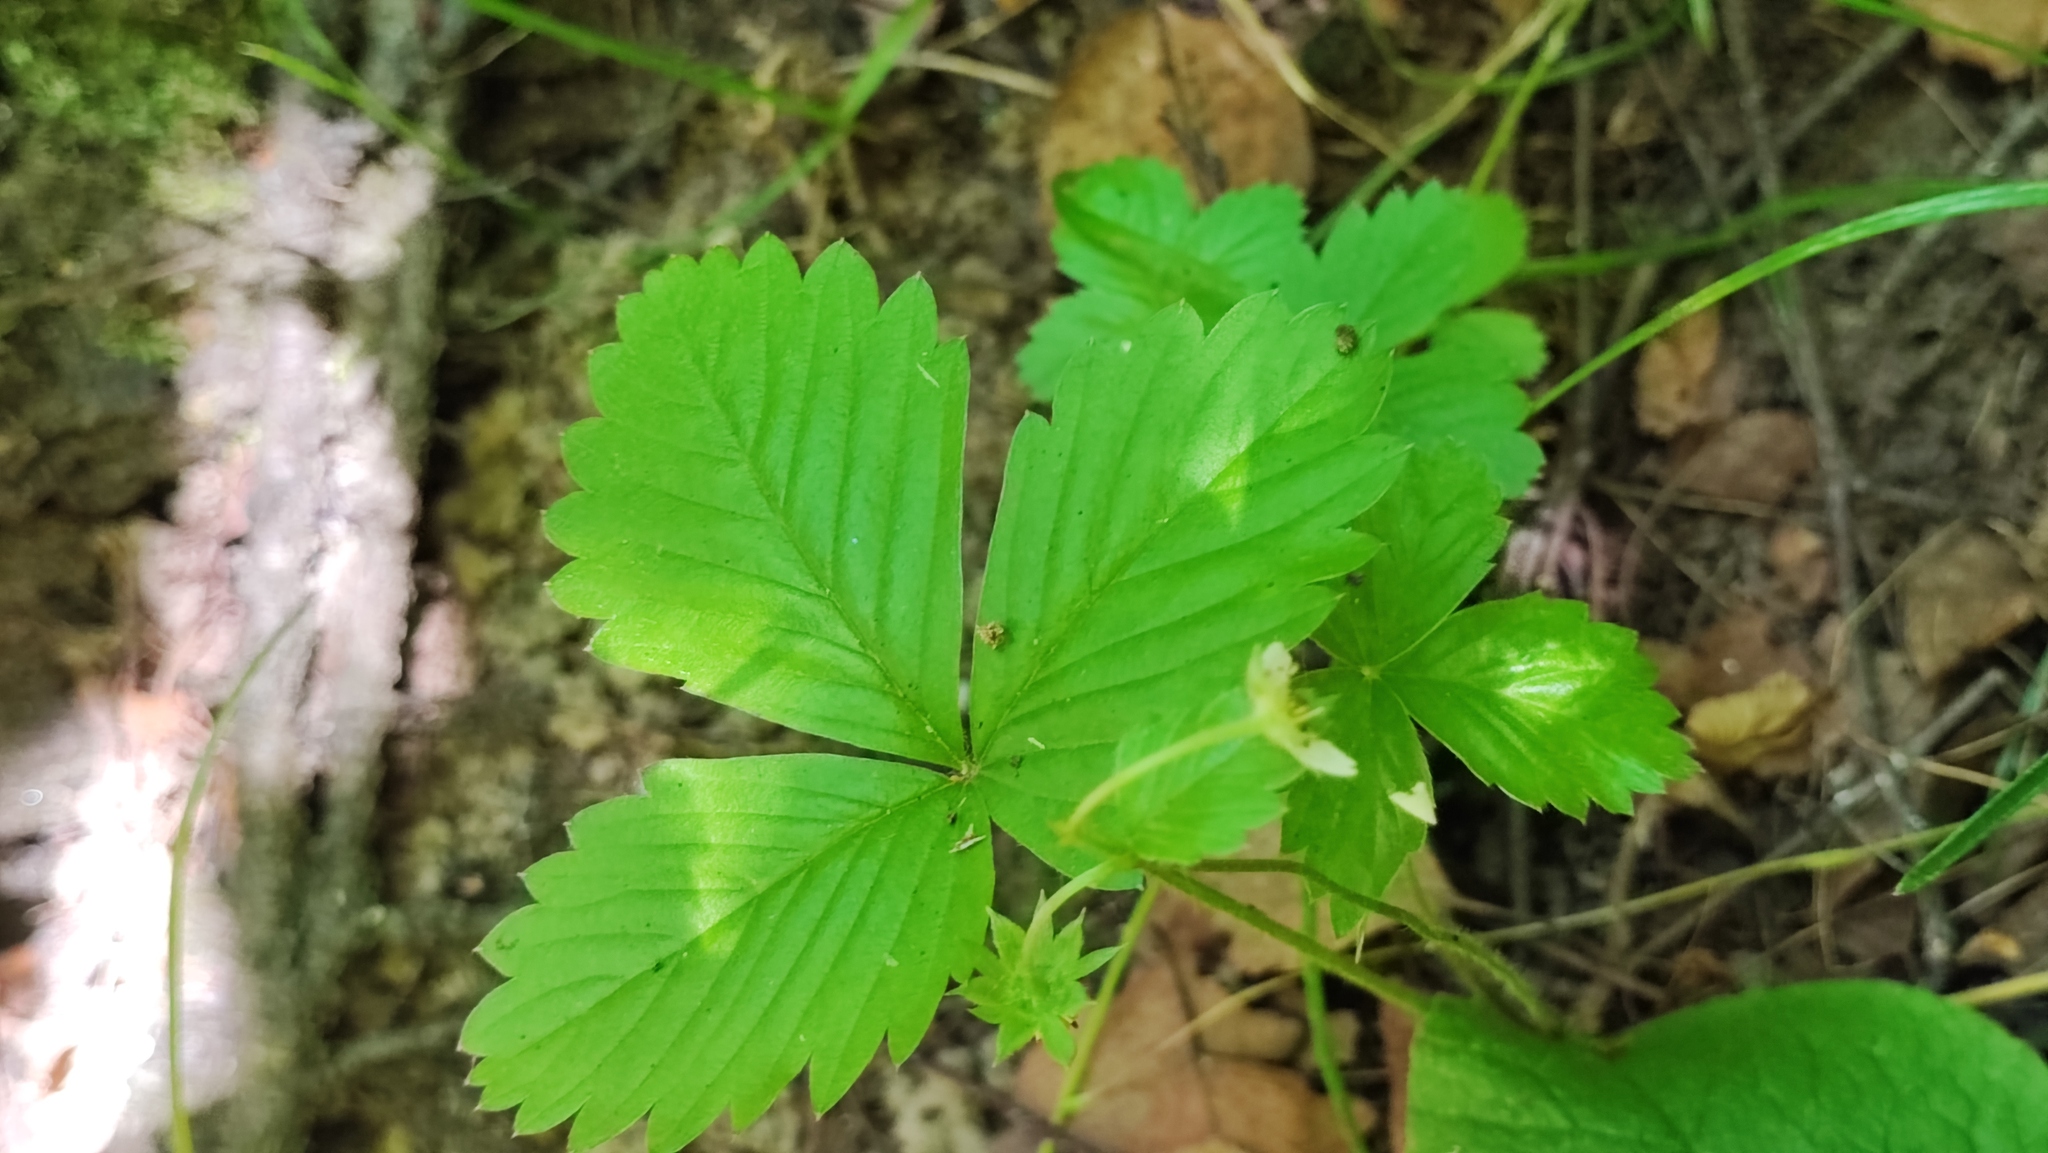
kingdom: Plantae
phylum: Tracheophyta
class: Magnoliopsida
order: Rosales
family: Rosaceae
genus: Fragaria
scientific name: Fragaria vesca
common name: Wild strawberry
